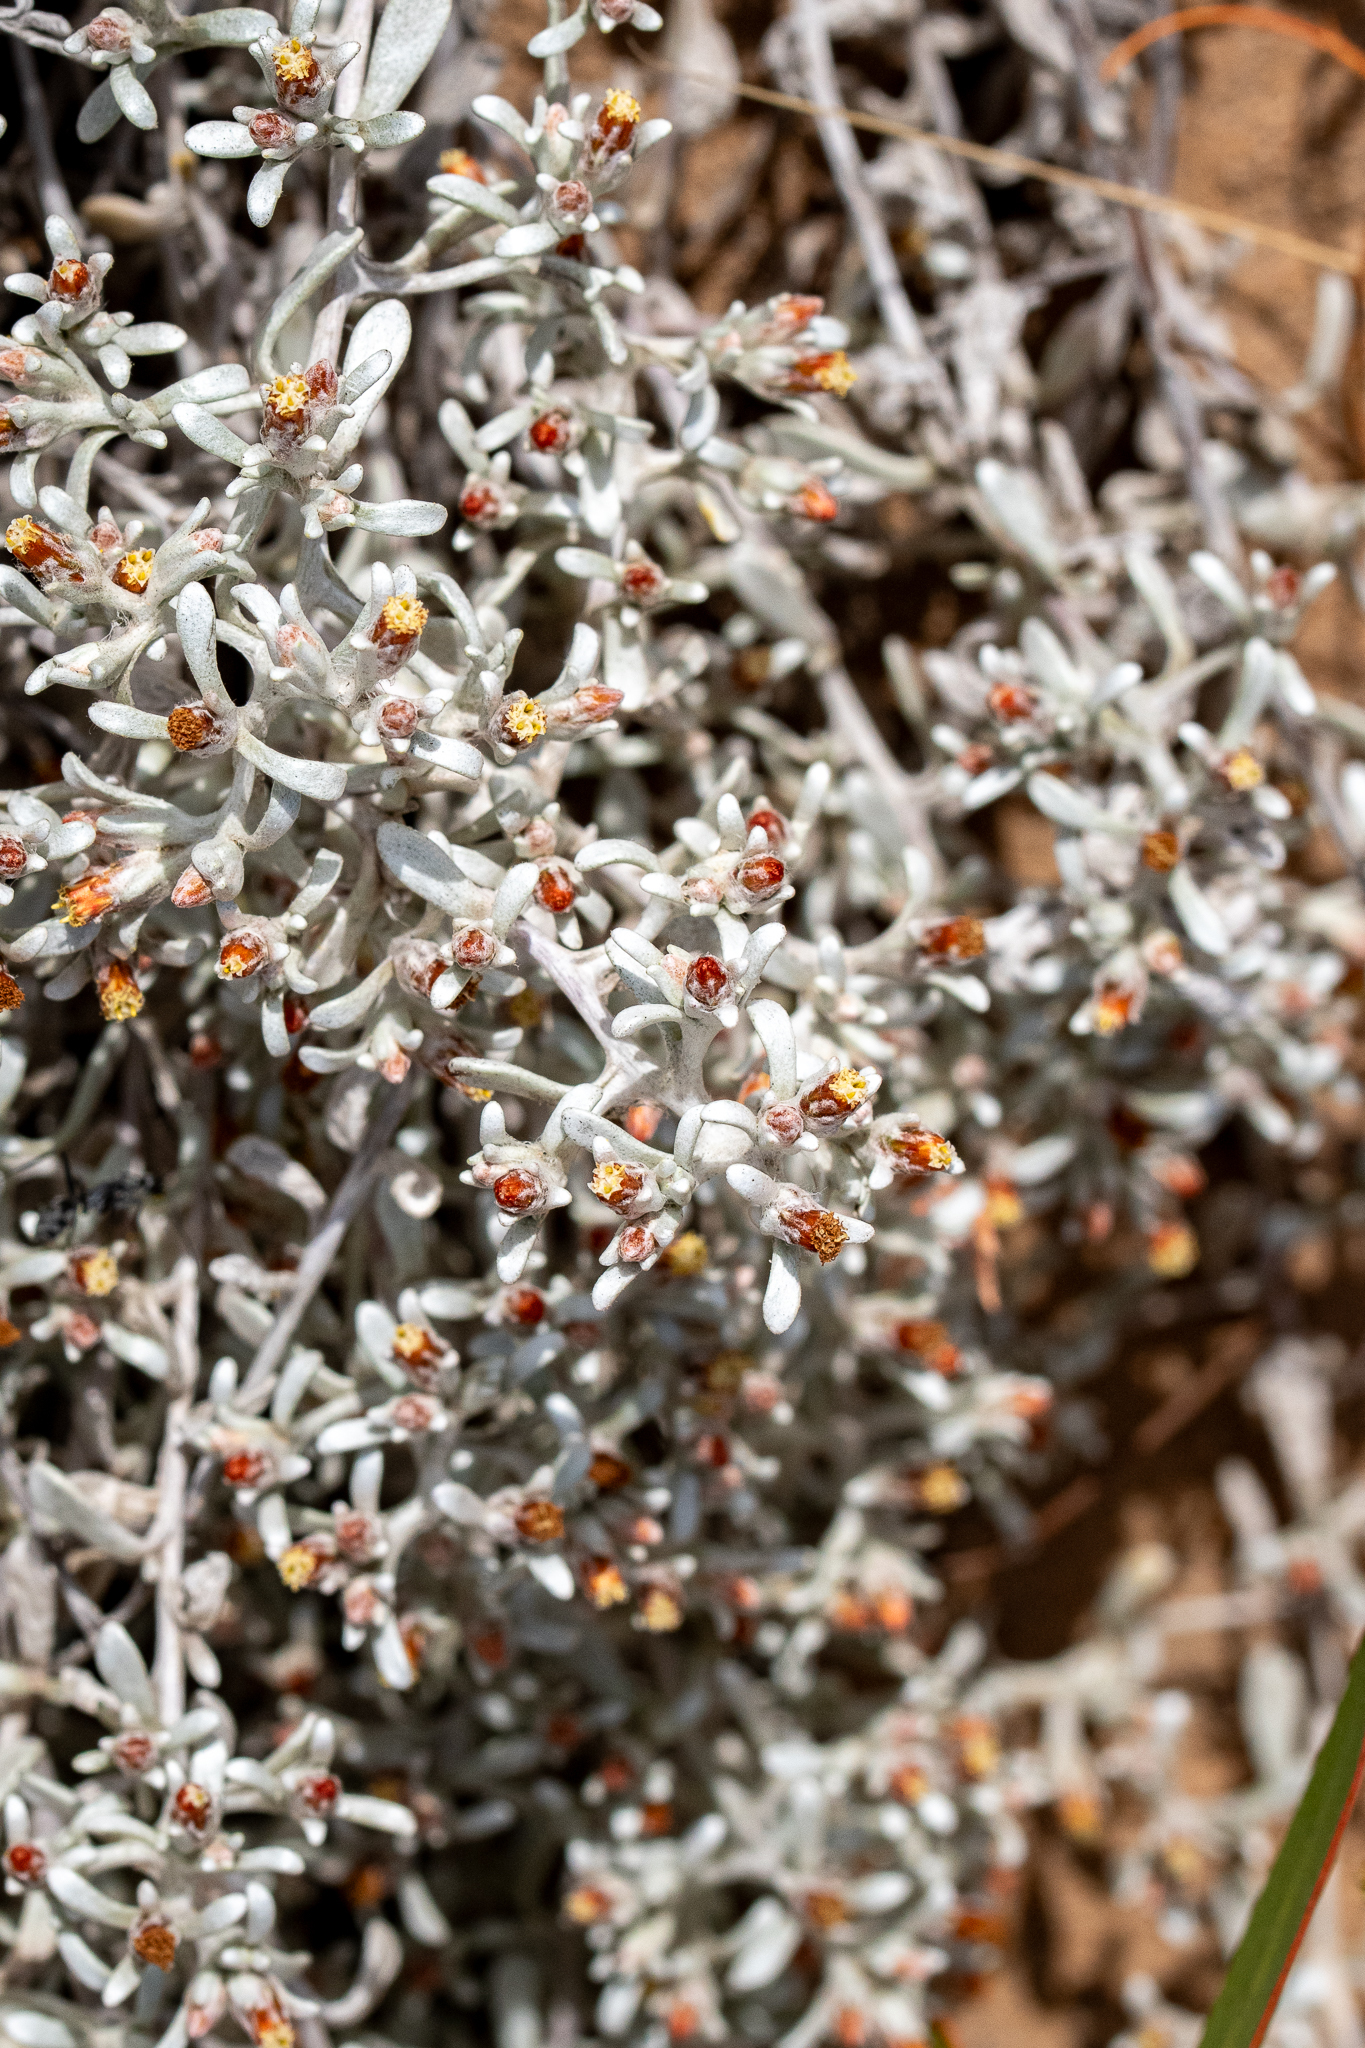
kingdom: Plantae
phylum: Tracheophyta
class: Magnoliopsida
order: Asterales
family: Asteraceae
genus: Helichrysum
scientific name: Helichrysum tinctum
